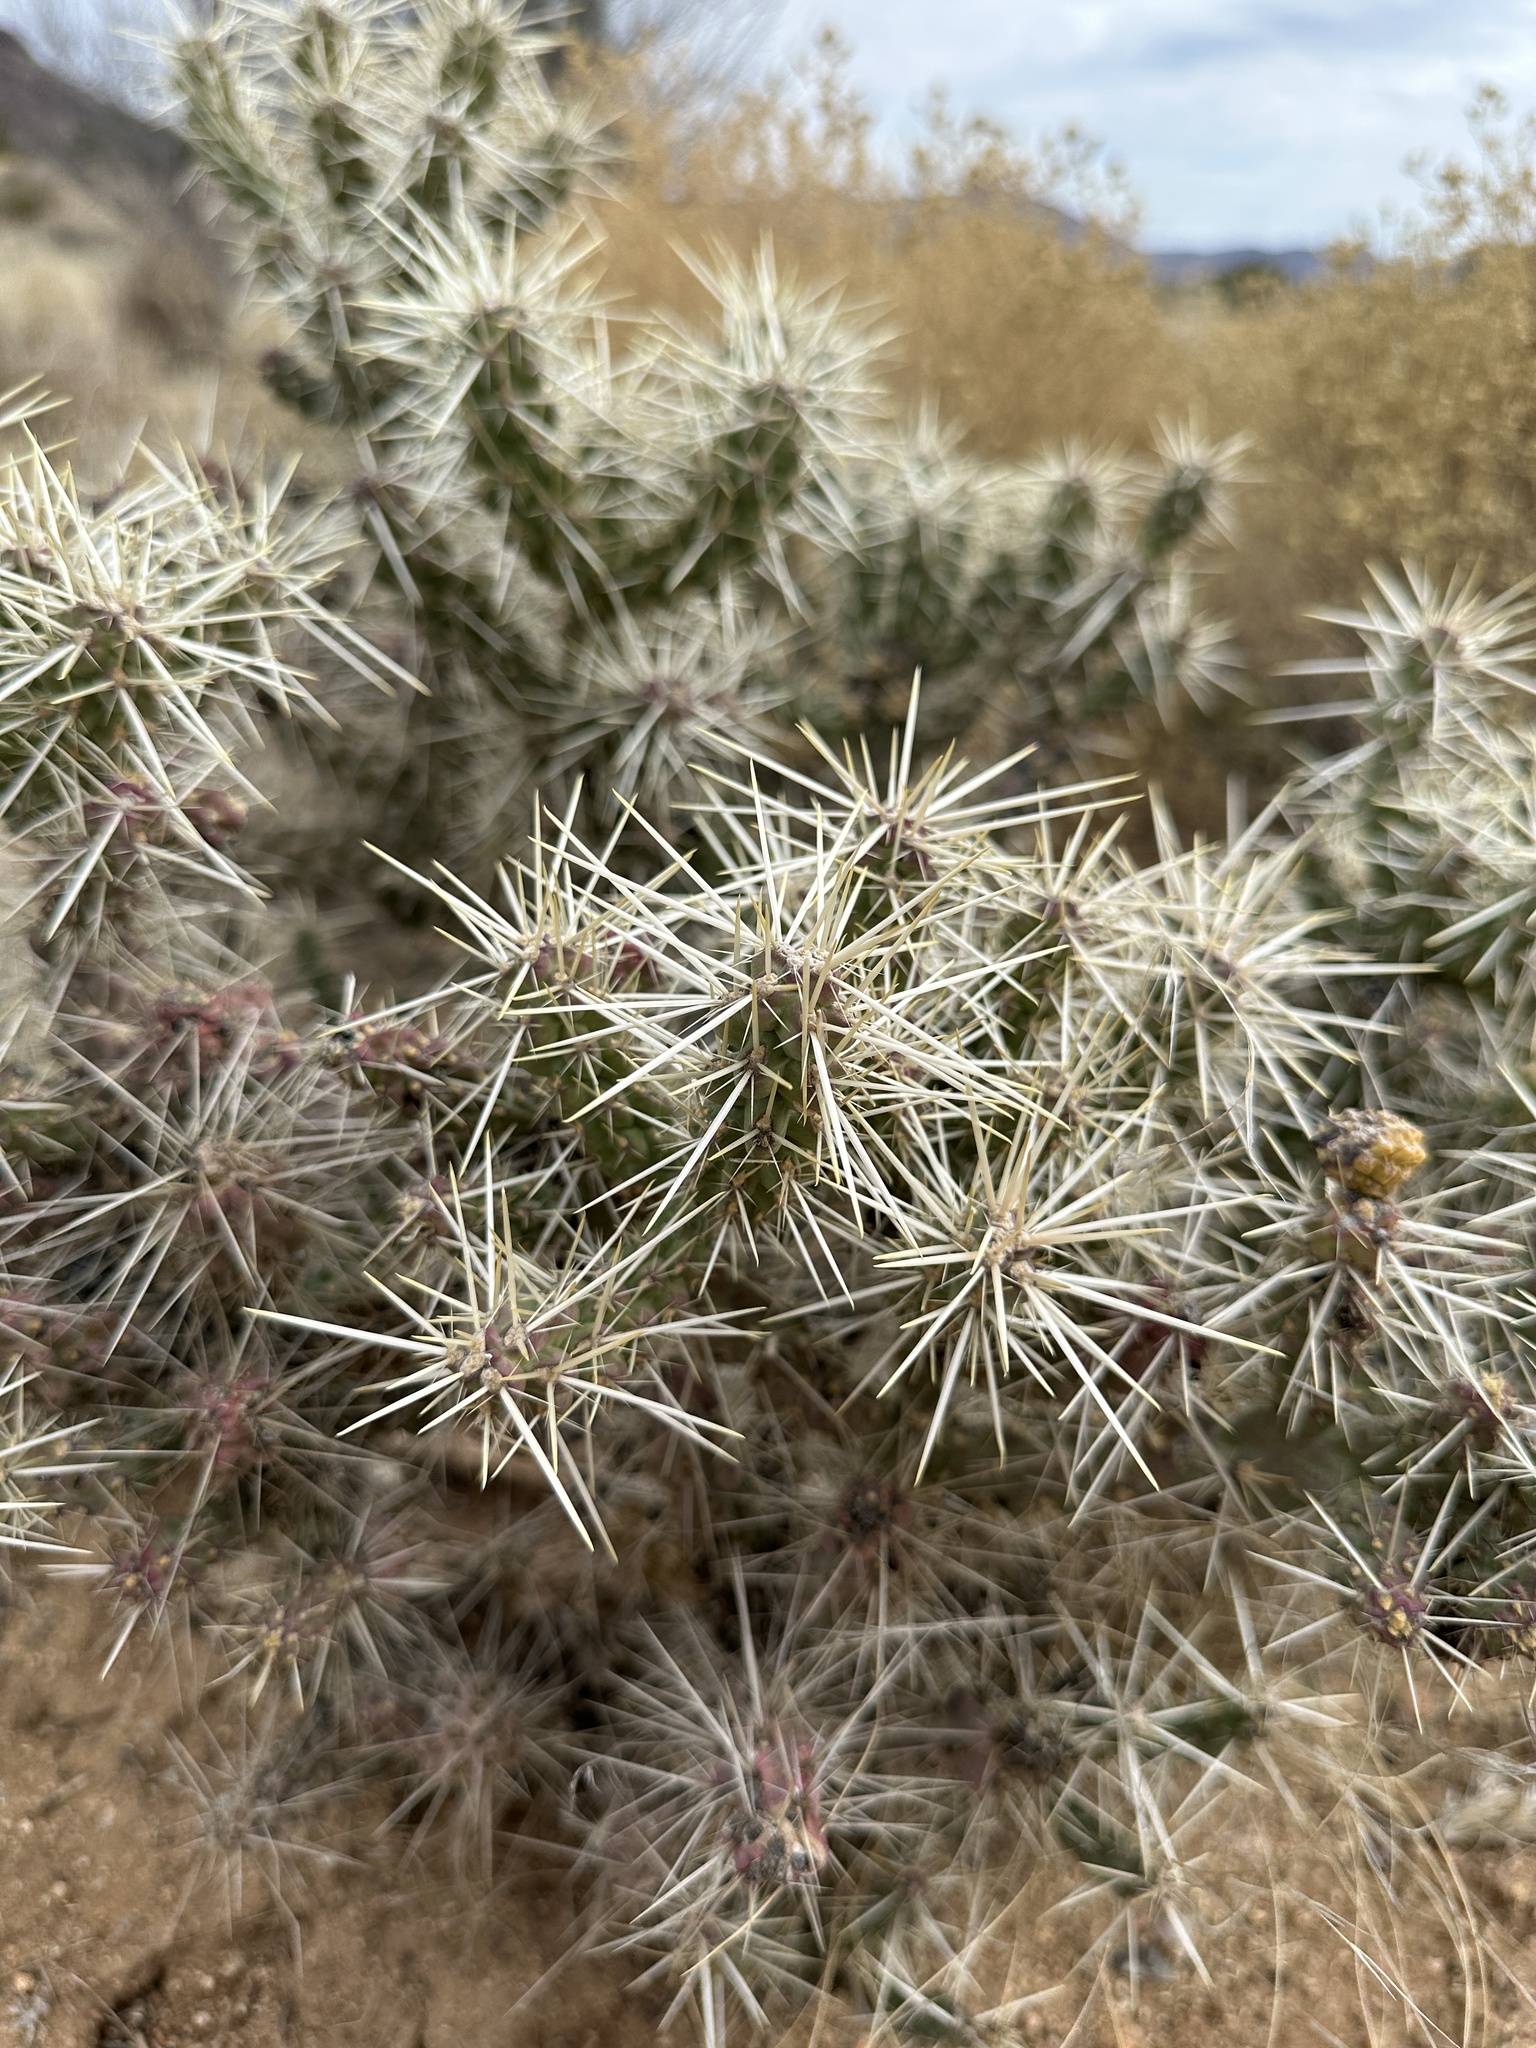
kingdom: Plantae
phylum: Tracheophyta
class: Magnoliopsida
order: Caryophyllales
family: Cactaceae
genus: Cylindropuntia
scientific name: Cylindropuntia whipplei
